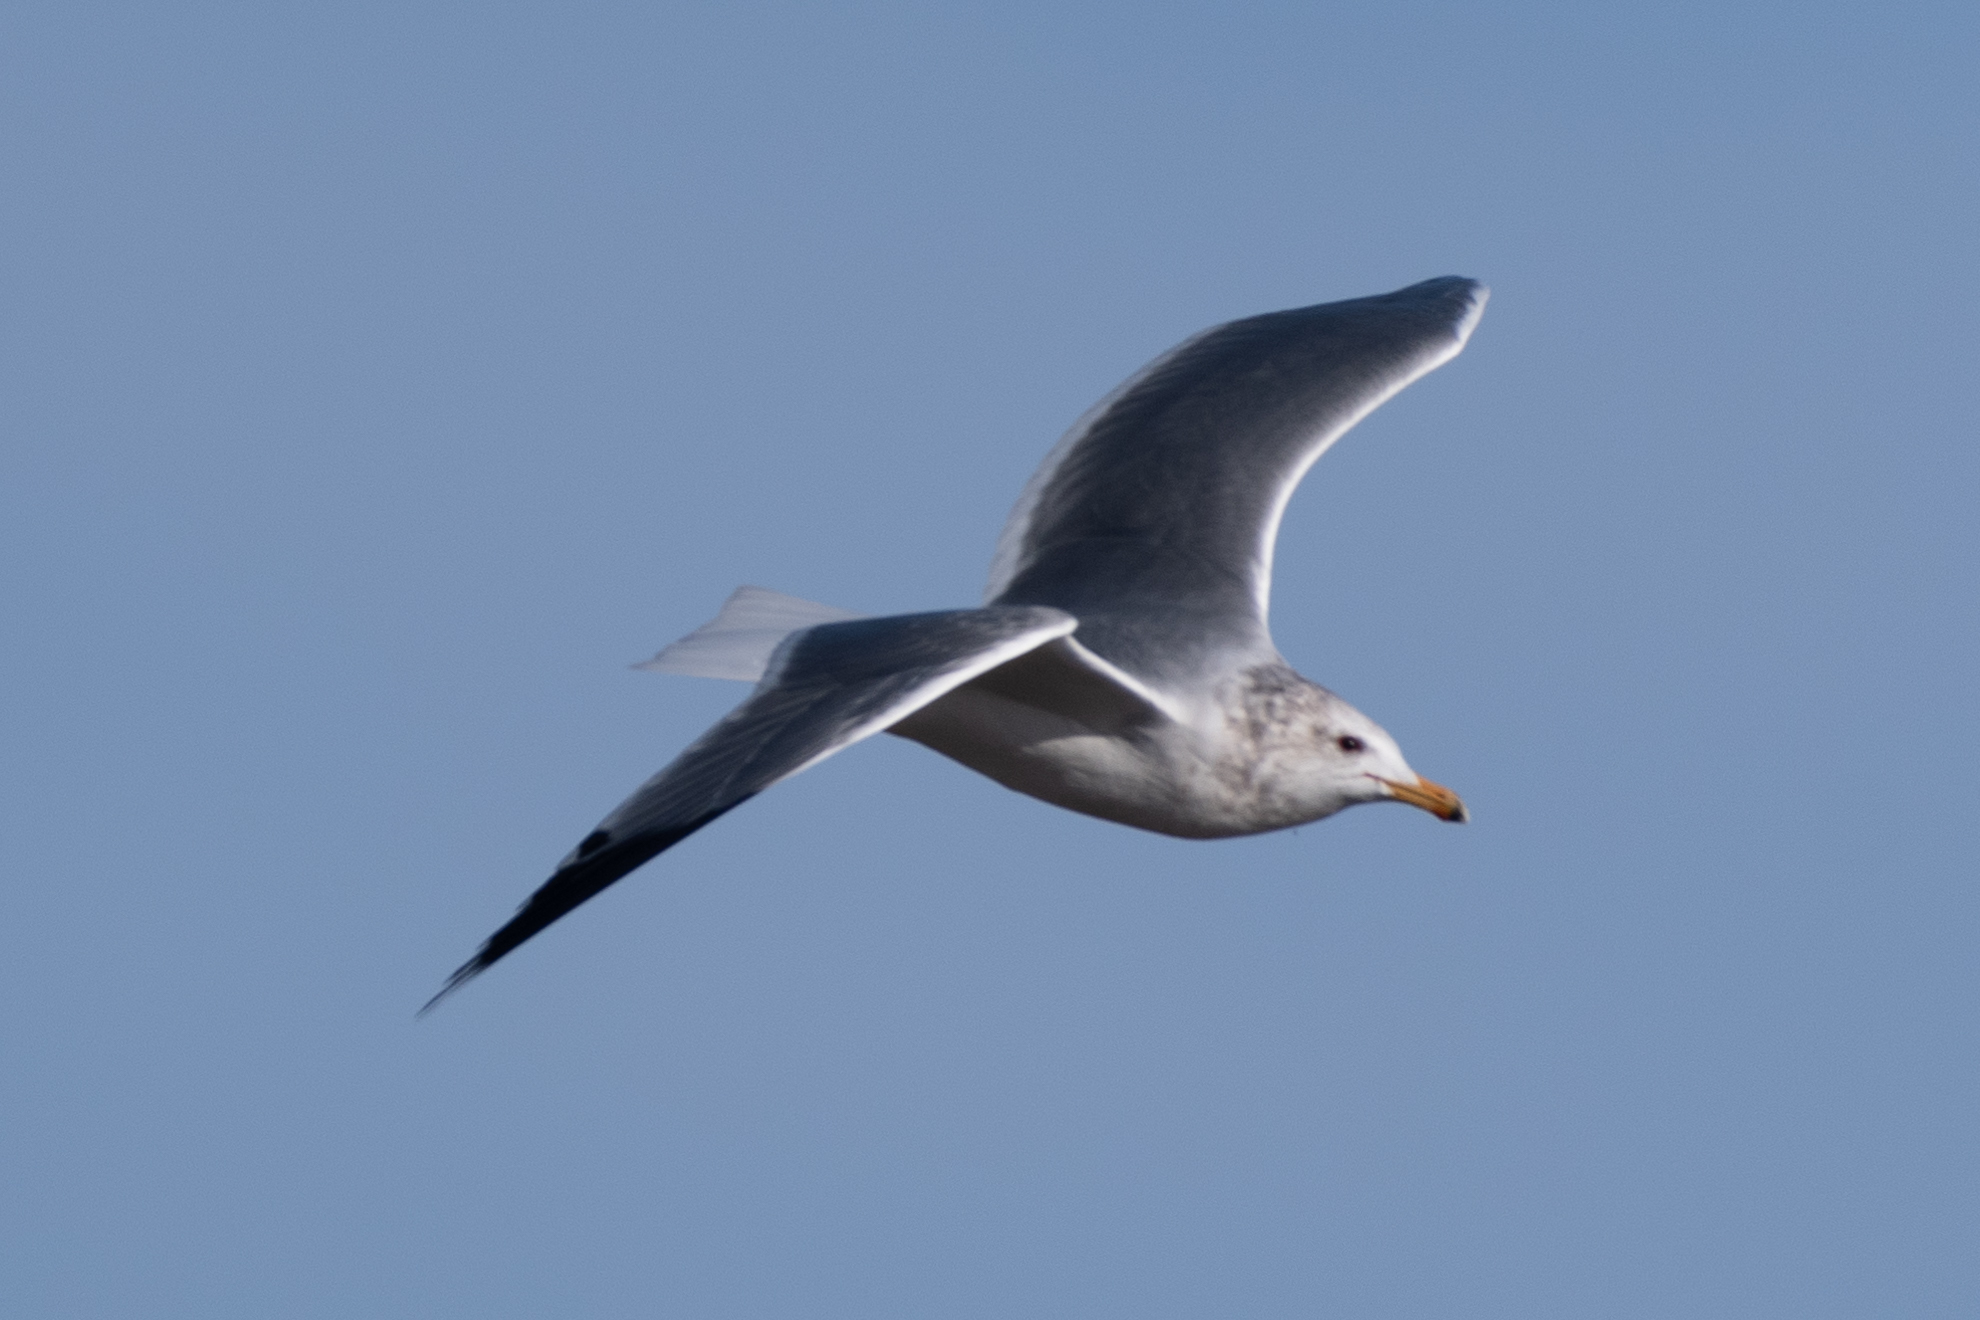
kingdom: Animalia
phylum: Chordata
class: Aves
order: Charadriiformes
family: Laridae
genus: Larus
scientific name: Larus californicus
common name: California gull
